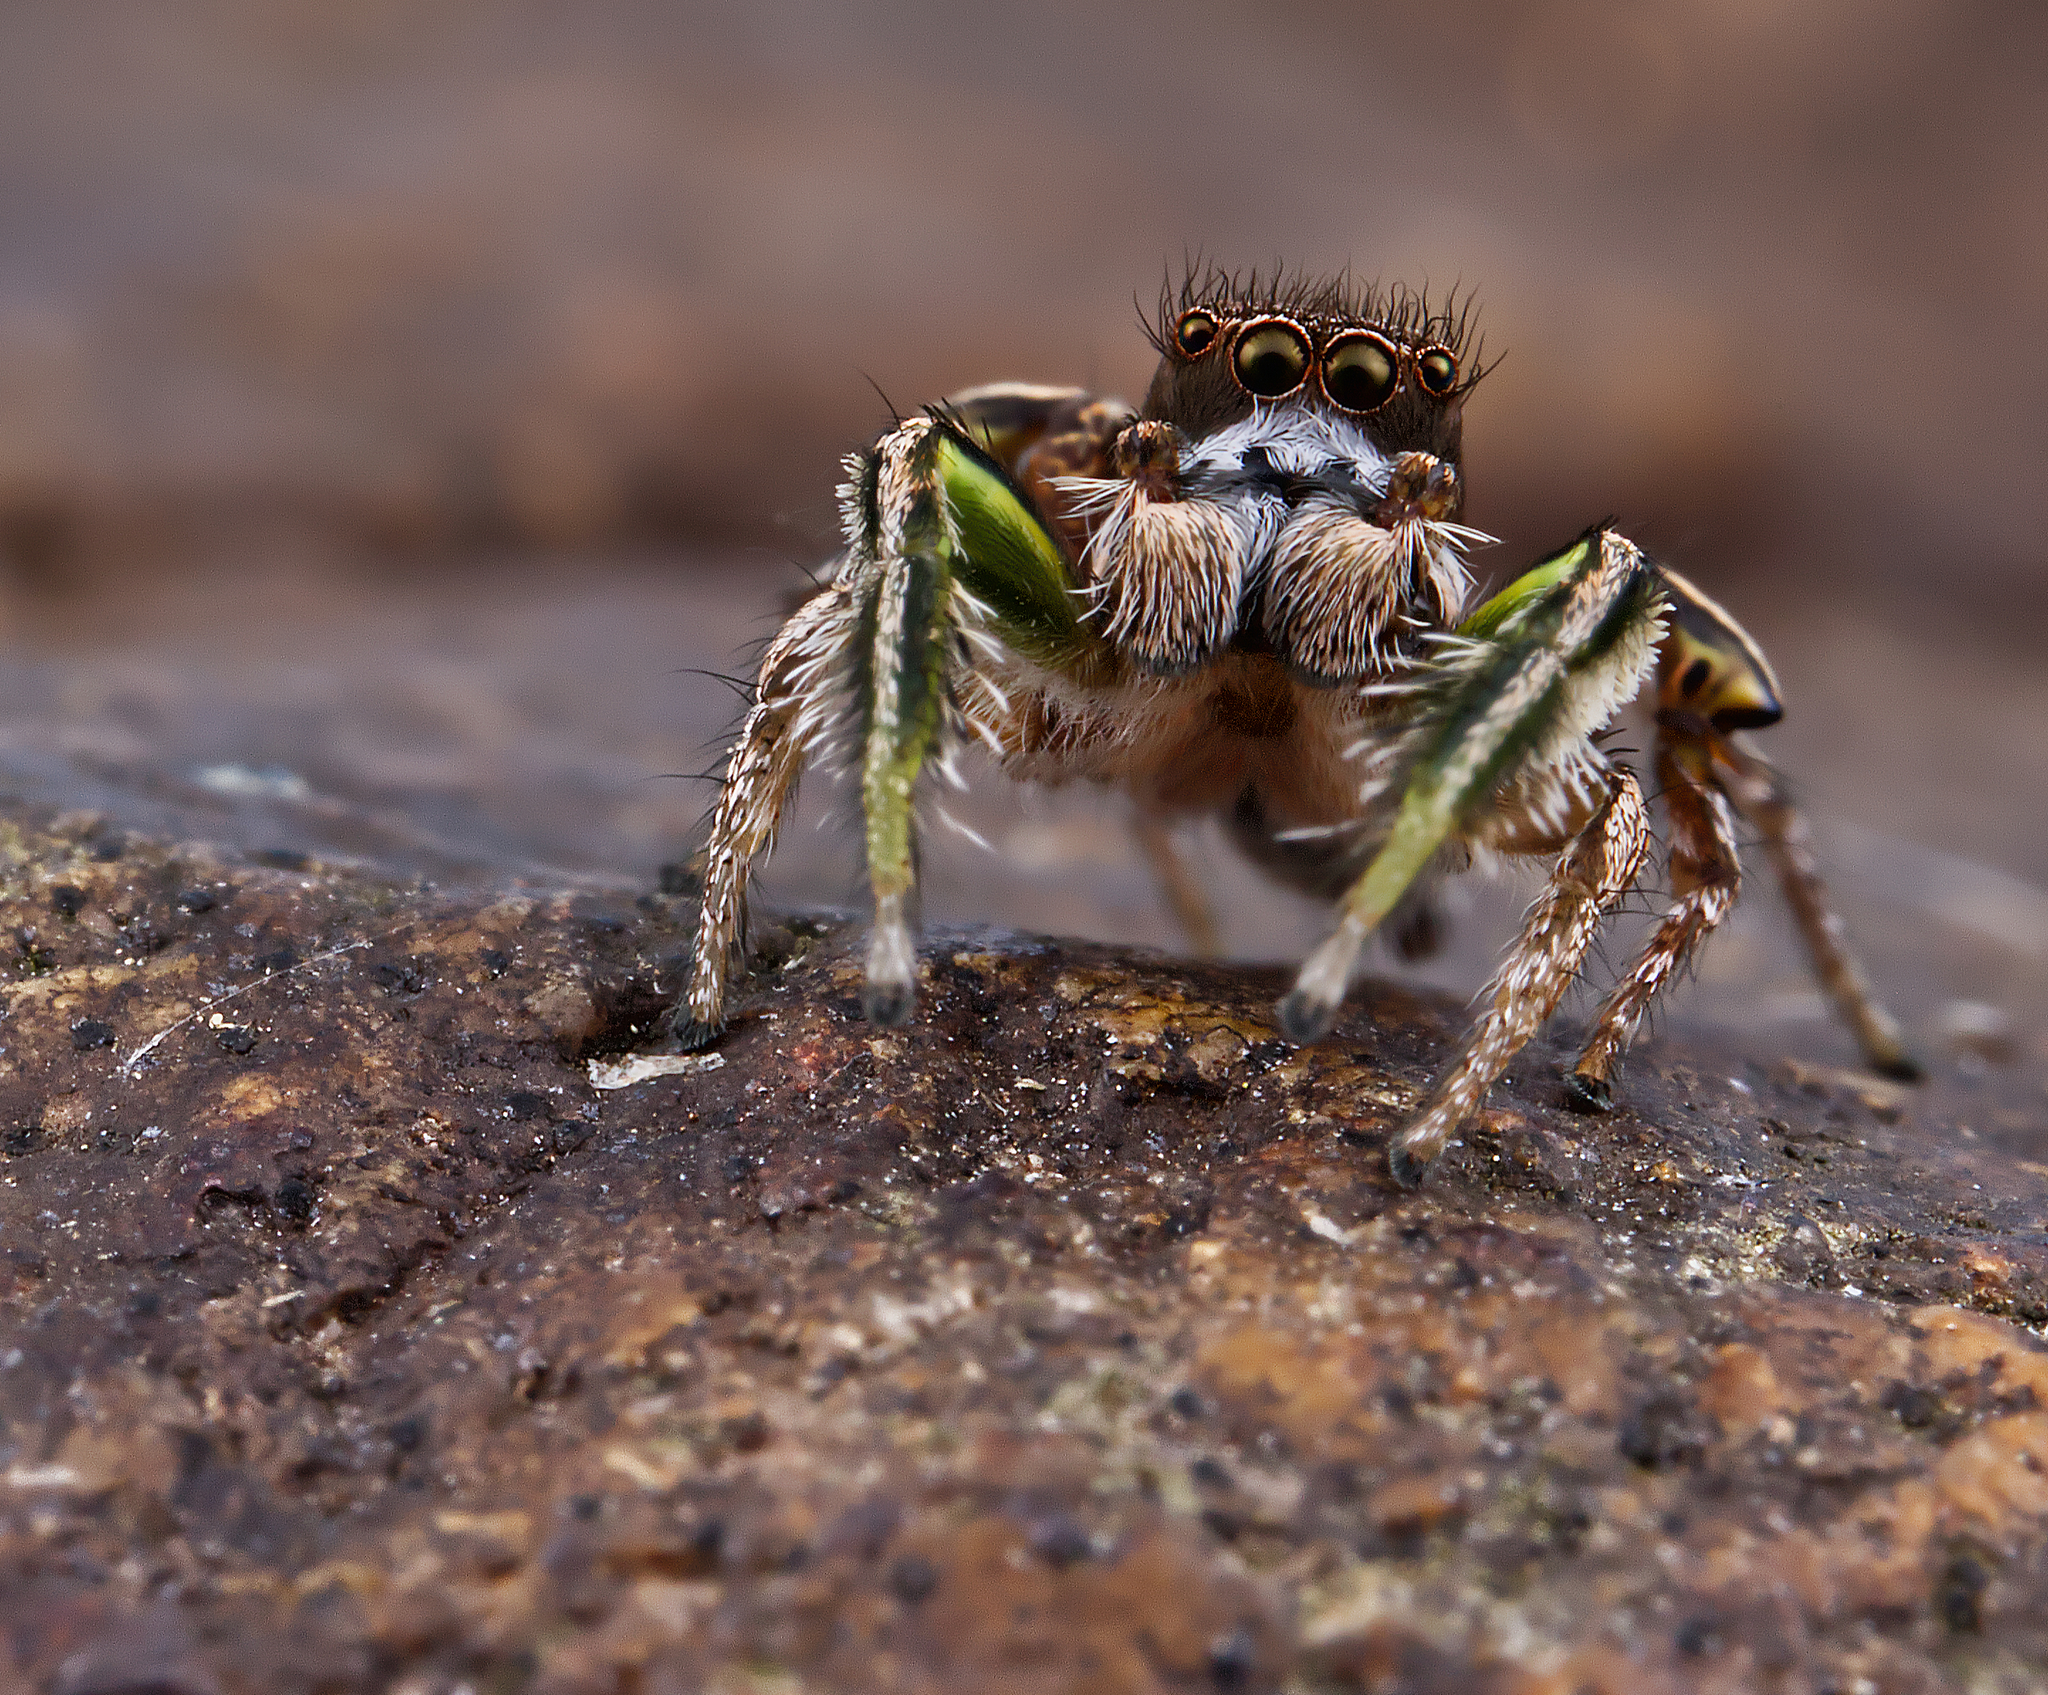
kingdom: Animalia
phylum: Arthropoda
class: Arachnida
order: Araneae
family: Salticidae
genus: Habronattus
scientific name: Habronattus viridipes
